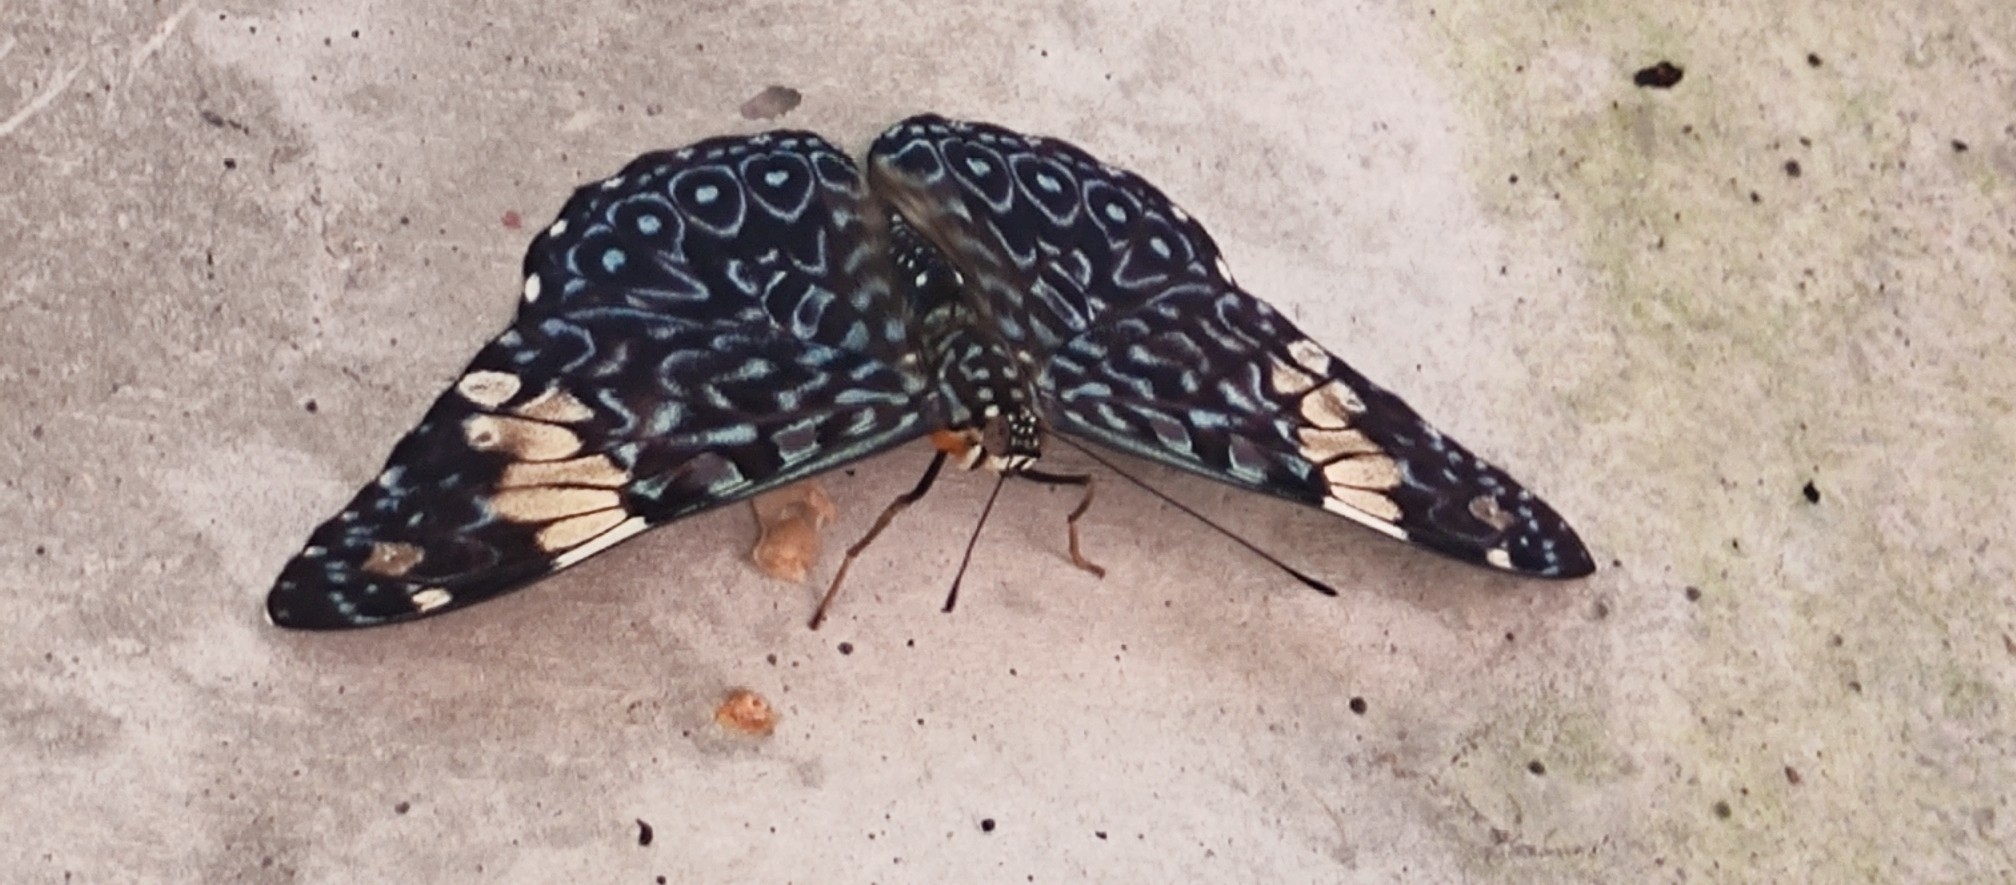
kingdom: Animalia
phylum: Arthropoda
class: Insecta
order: Lepidoptera
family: Nymphalidae
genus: Hamadryas
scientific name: Hamadryas amphinome
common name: Red cracker
